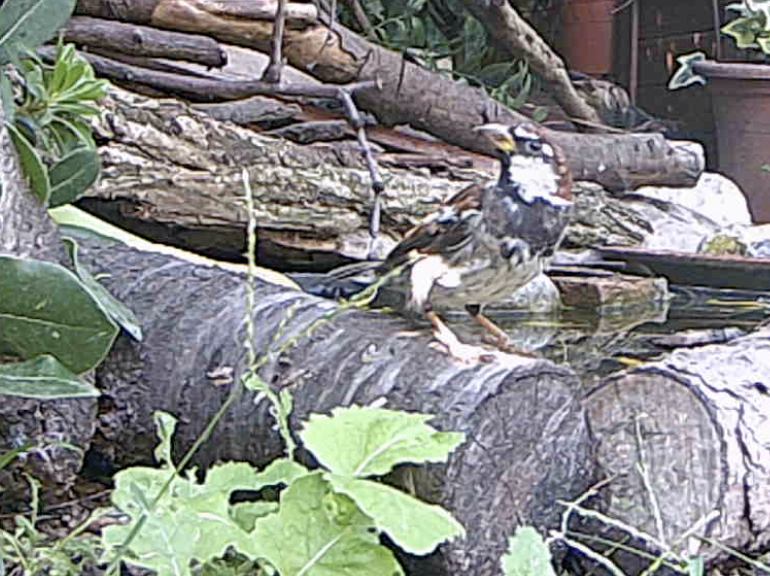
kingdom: Animalia
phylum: Chordata
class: Aves
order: Passeriformes
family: Passeridae
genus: Passer
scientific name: Passer italiae
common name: Italian sparrow
